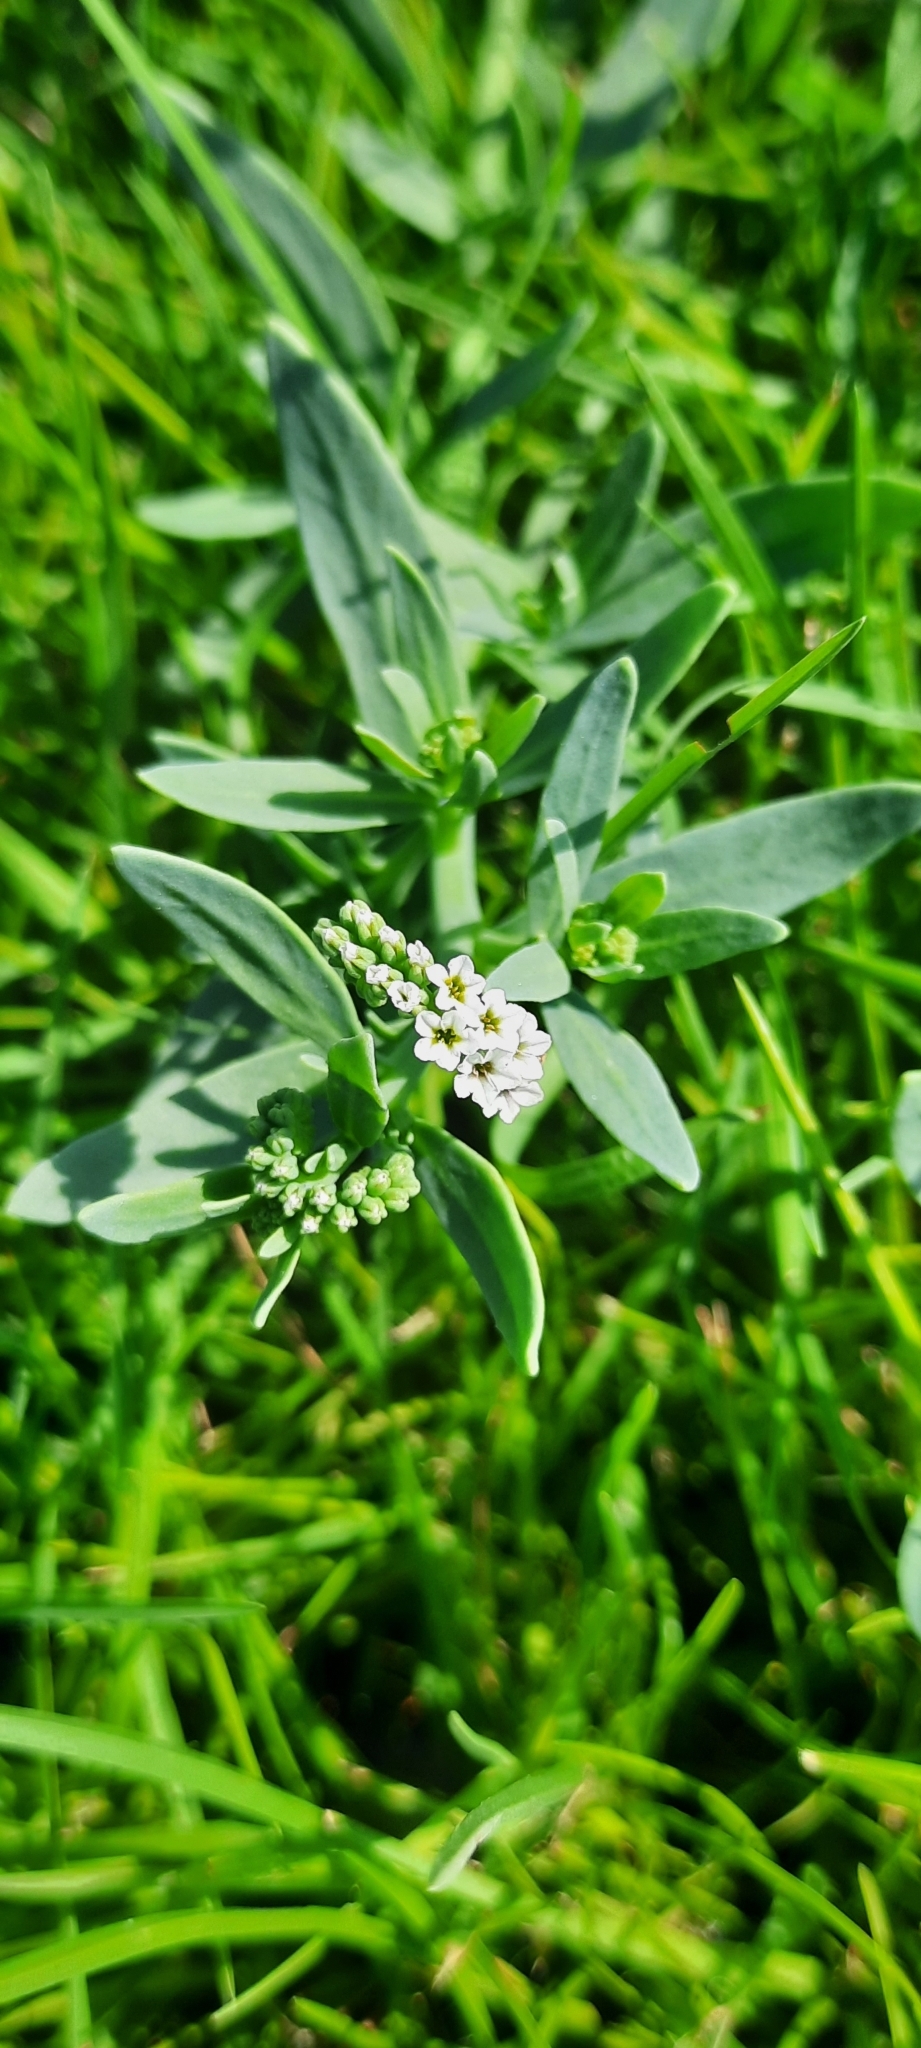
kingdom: Plantae
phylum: Tracheophyta
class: Magnoliopsida
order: Boraginales
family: Heliotropiaceae
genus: Heliotropium
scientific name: Heliotropium curassavicum
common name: Seaside heliotrope
